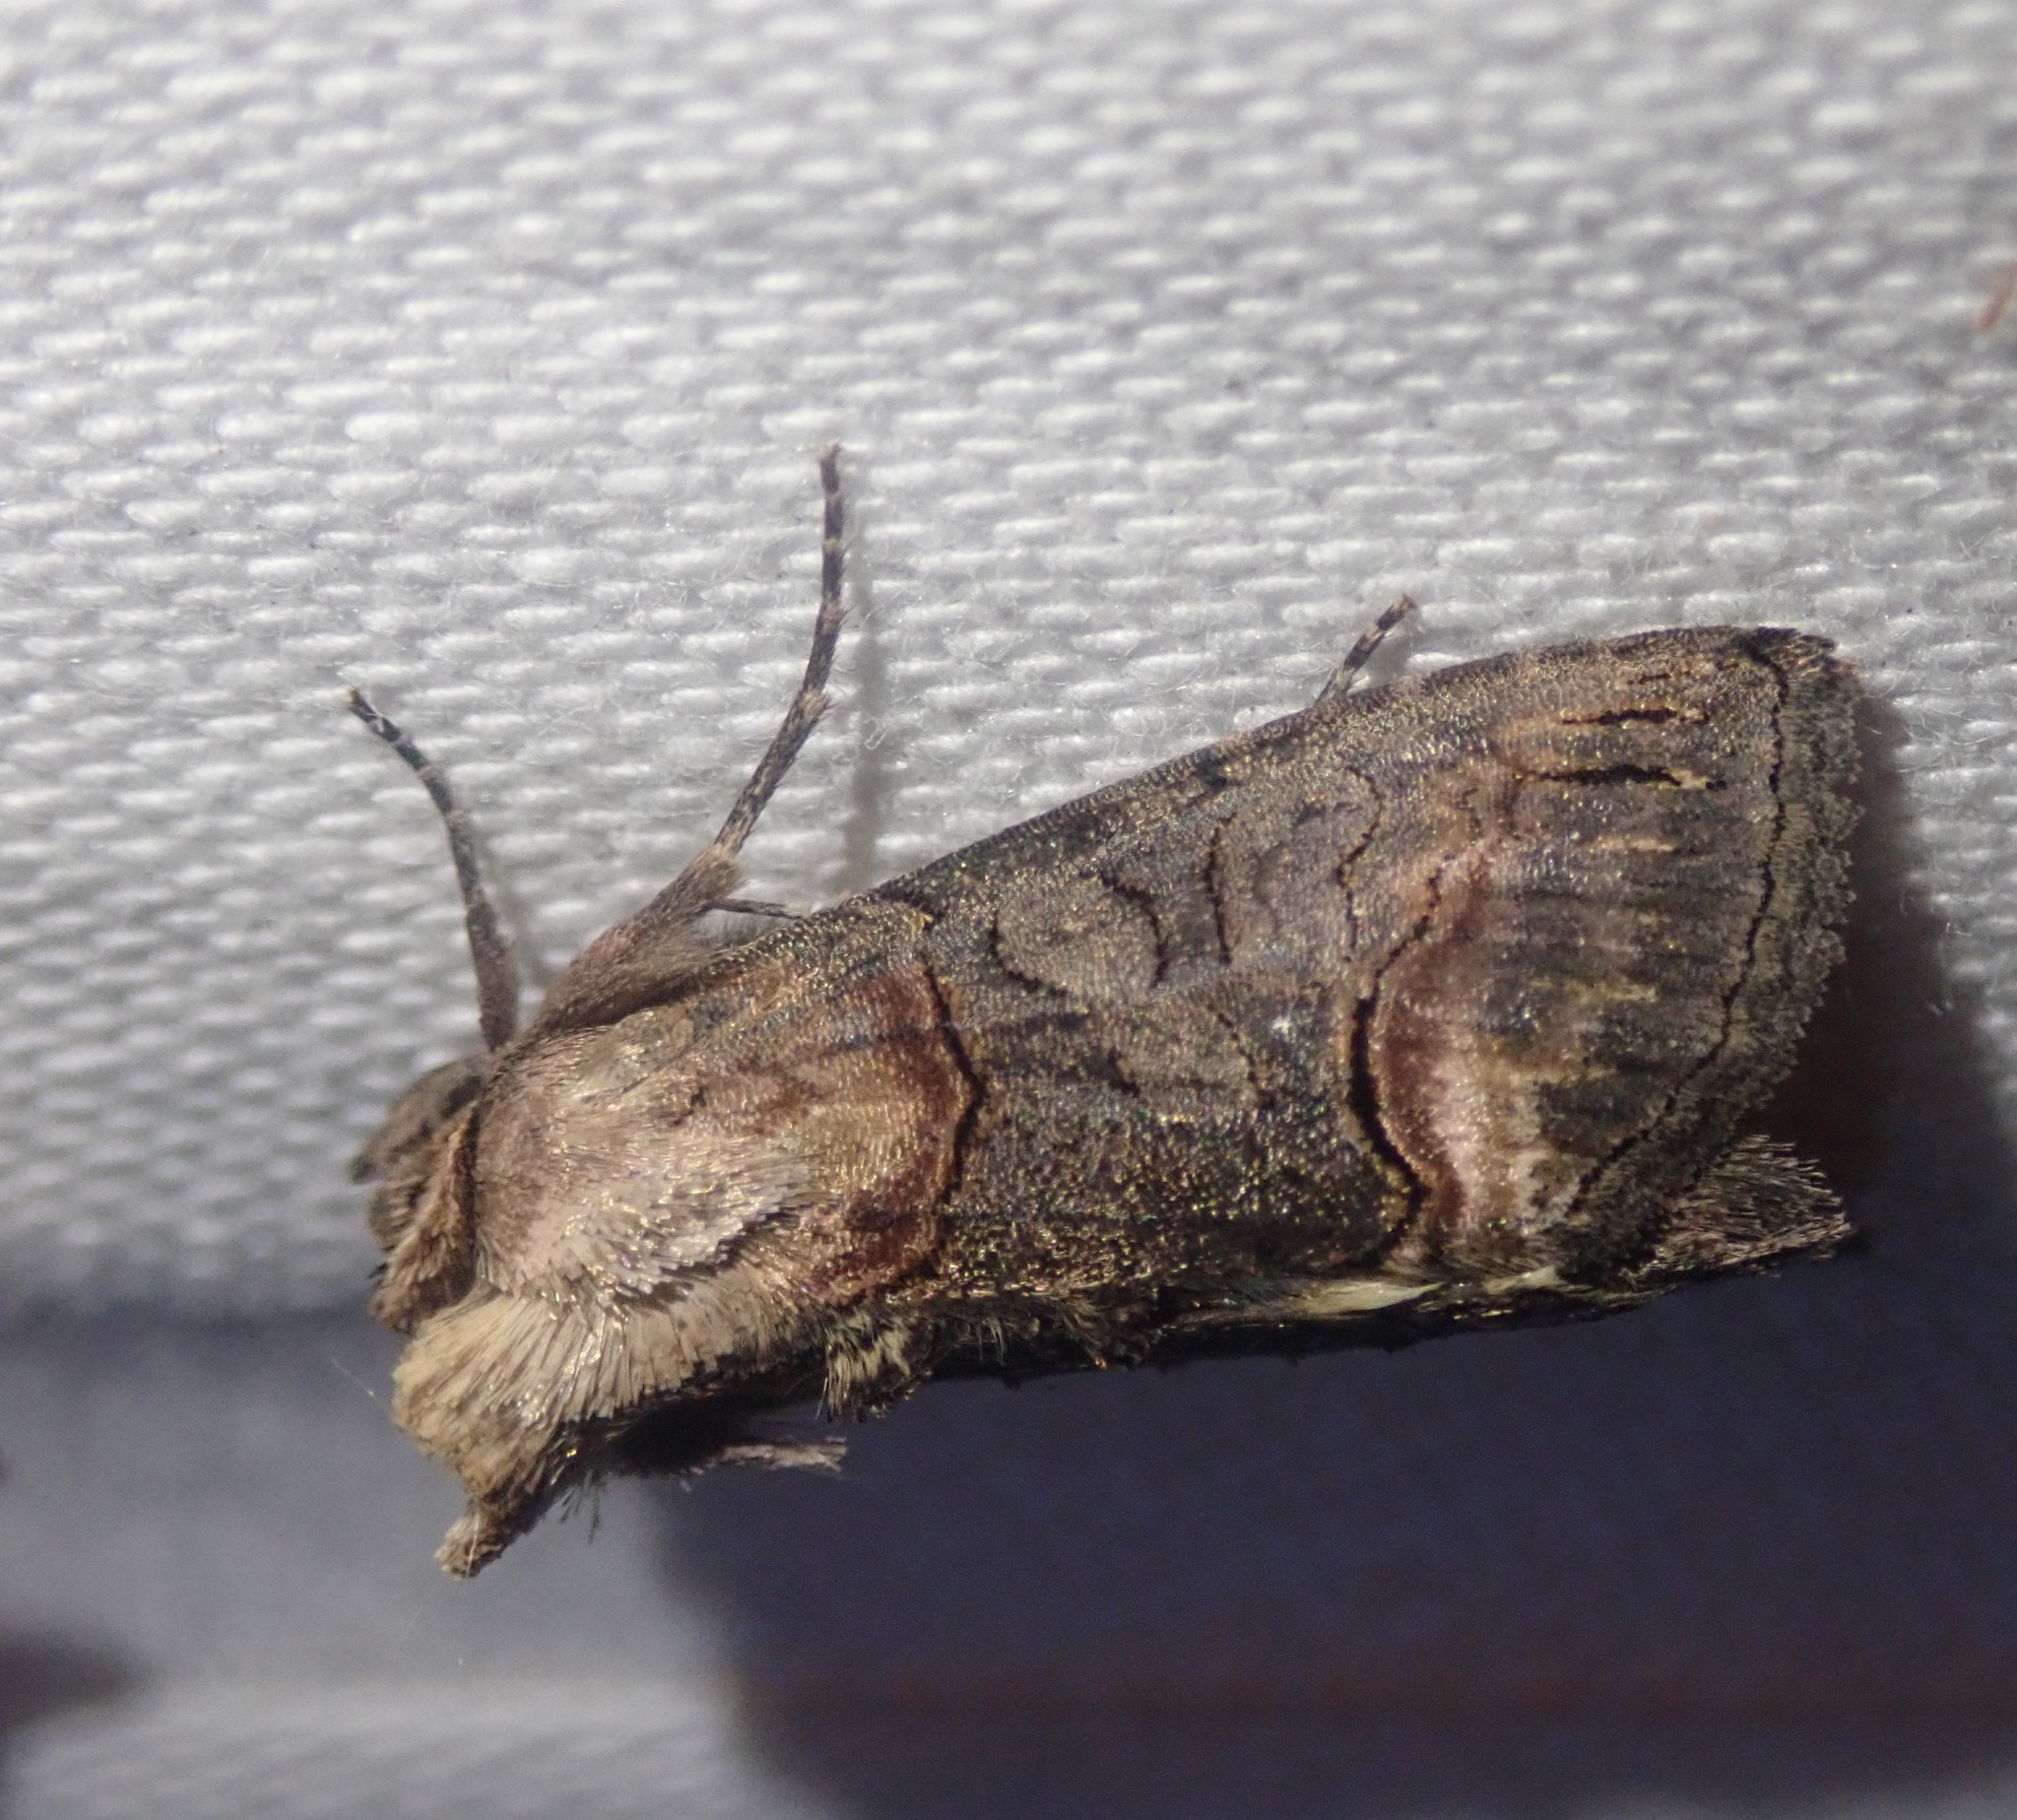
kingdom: Animalia
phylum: Arthropoda
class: Insecta
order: Lepidoptera
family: Noctuidae
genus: Abrostola
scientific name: Abrostola triplasia
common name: Dark spectacle
